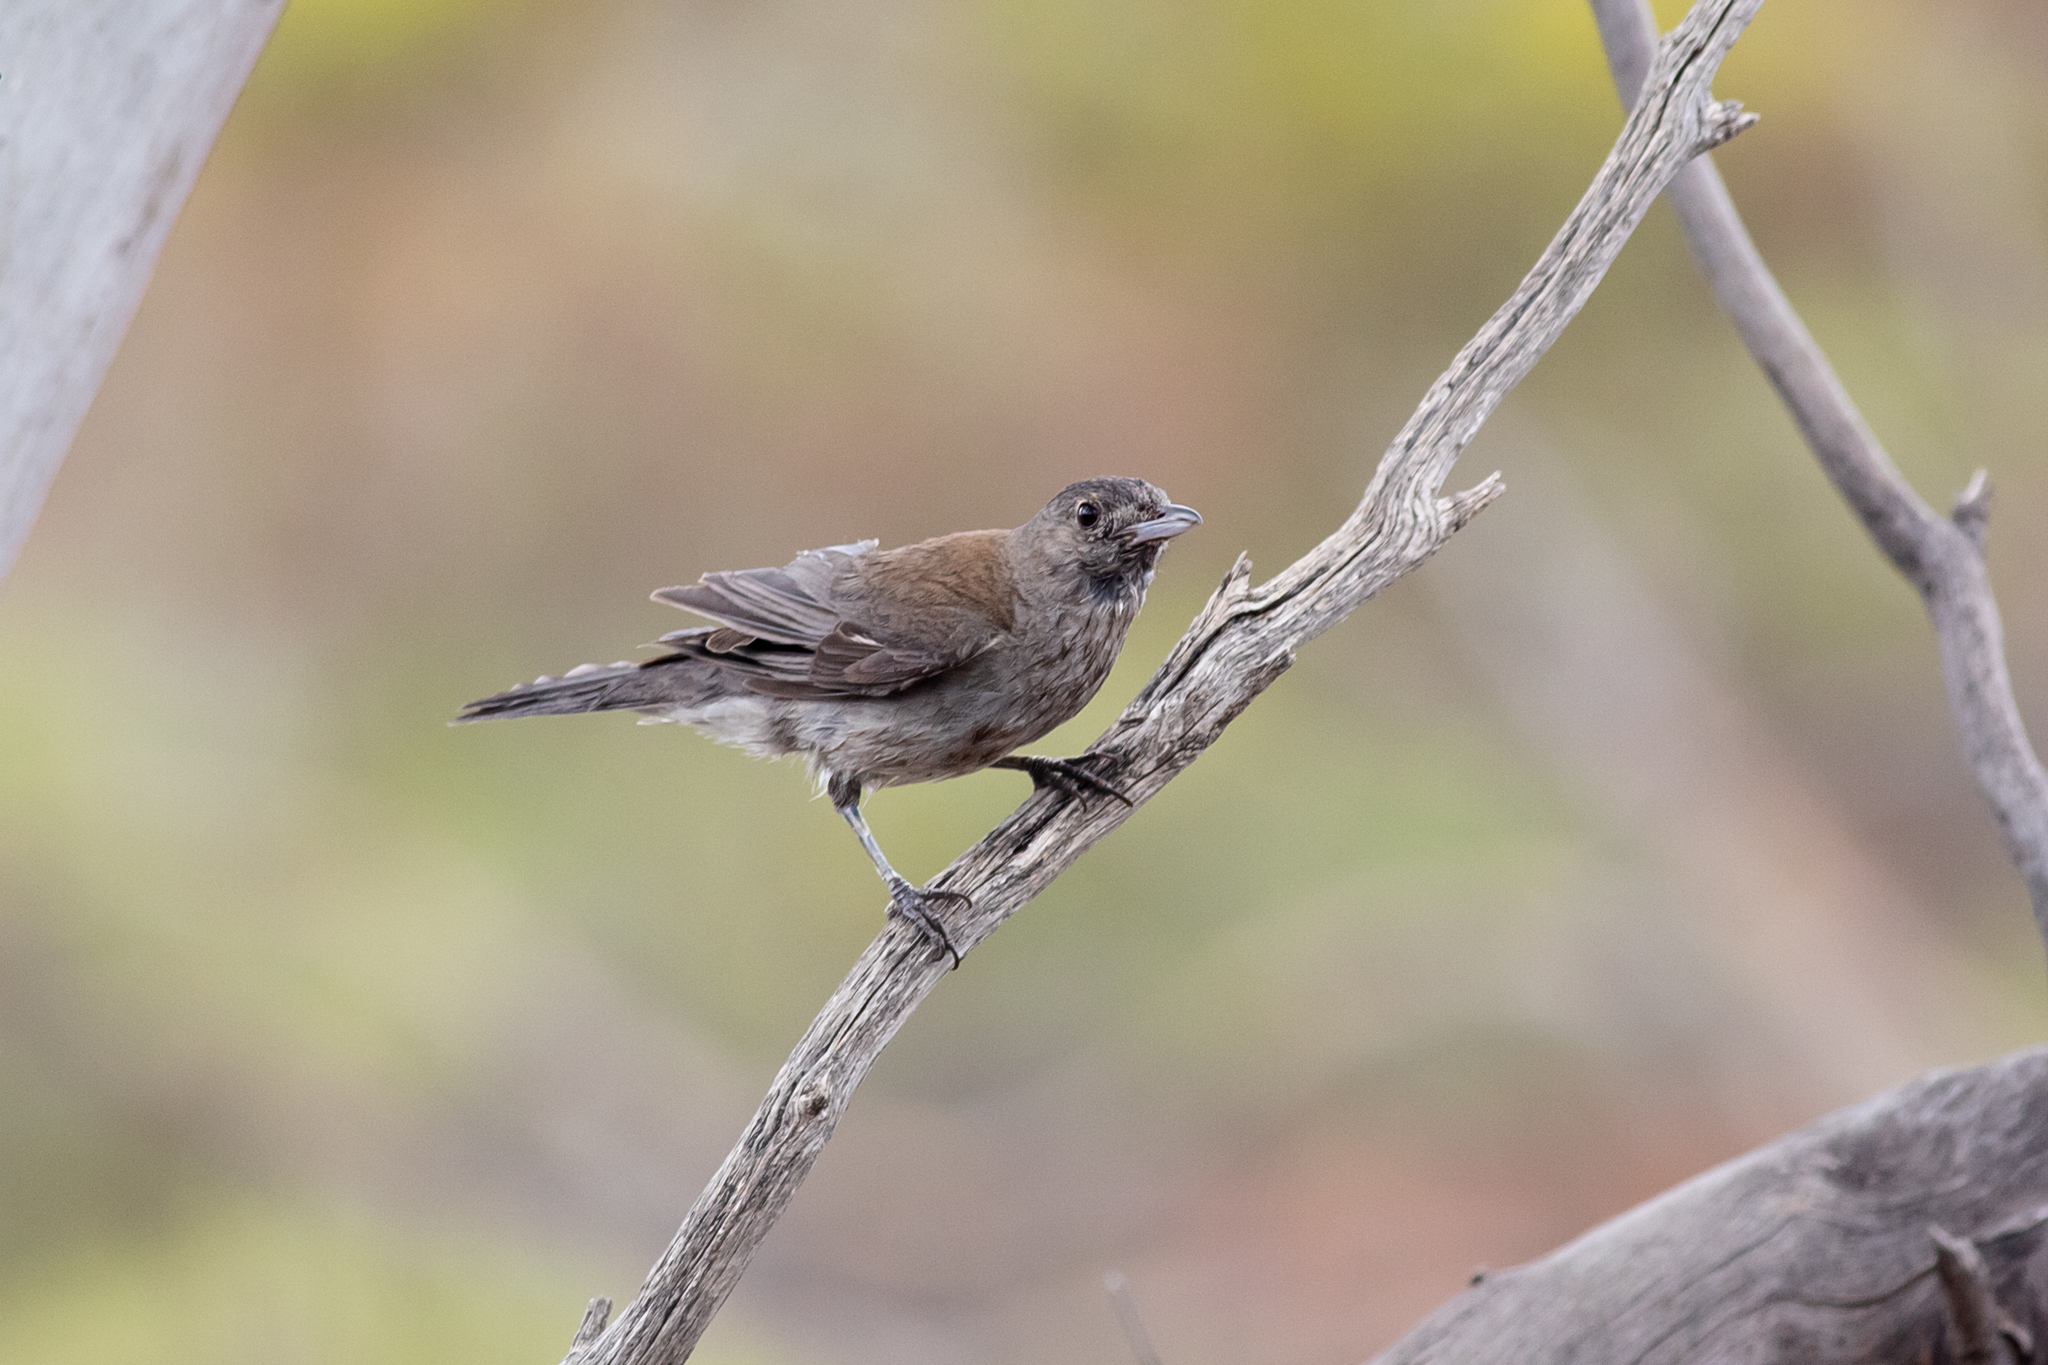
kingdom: Animalia
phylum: Chordata
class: Aves
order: Passeriformes
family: Pachycephalidae
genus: Colluricincla
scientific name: Colluricincla harmonica
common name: Grey shrikethrush
